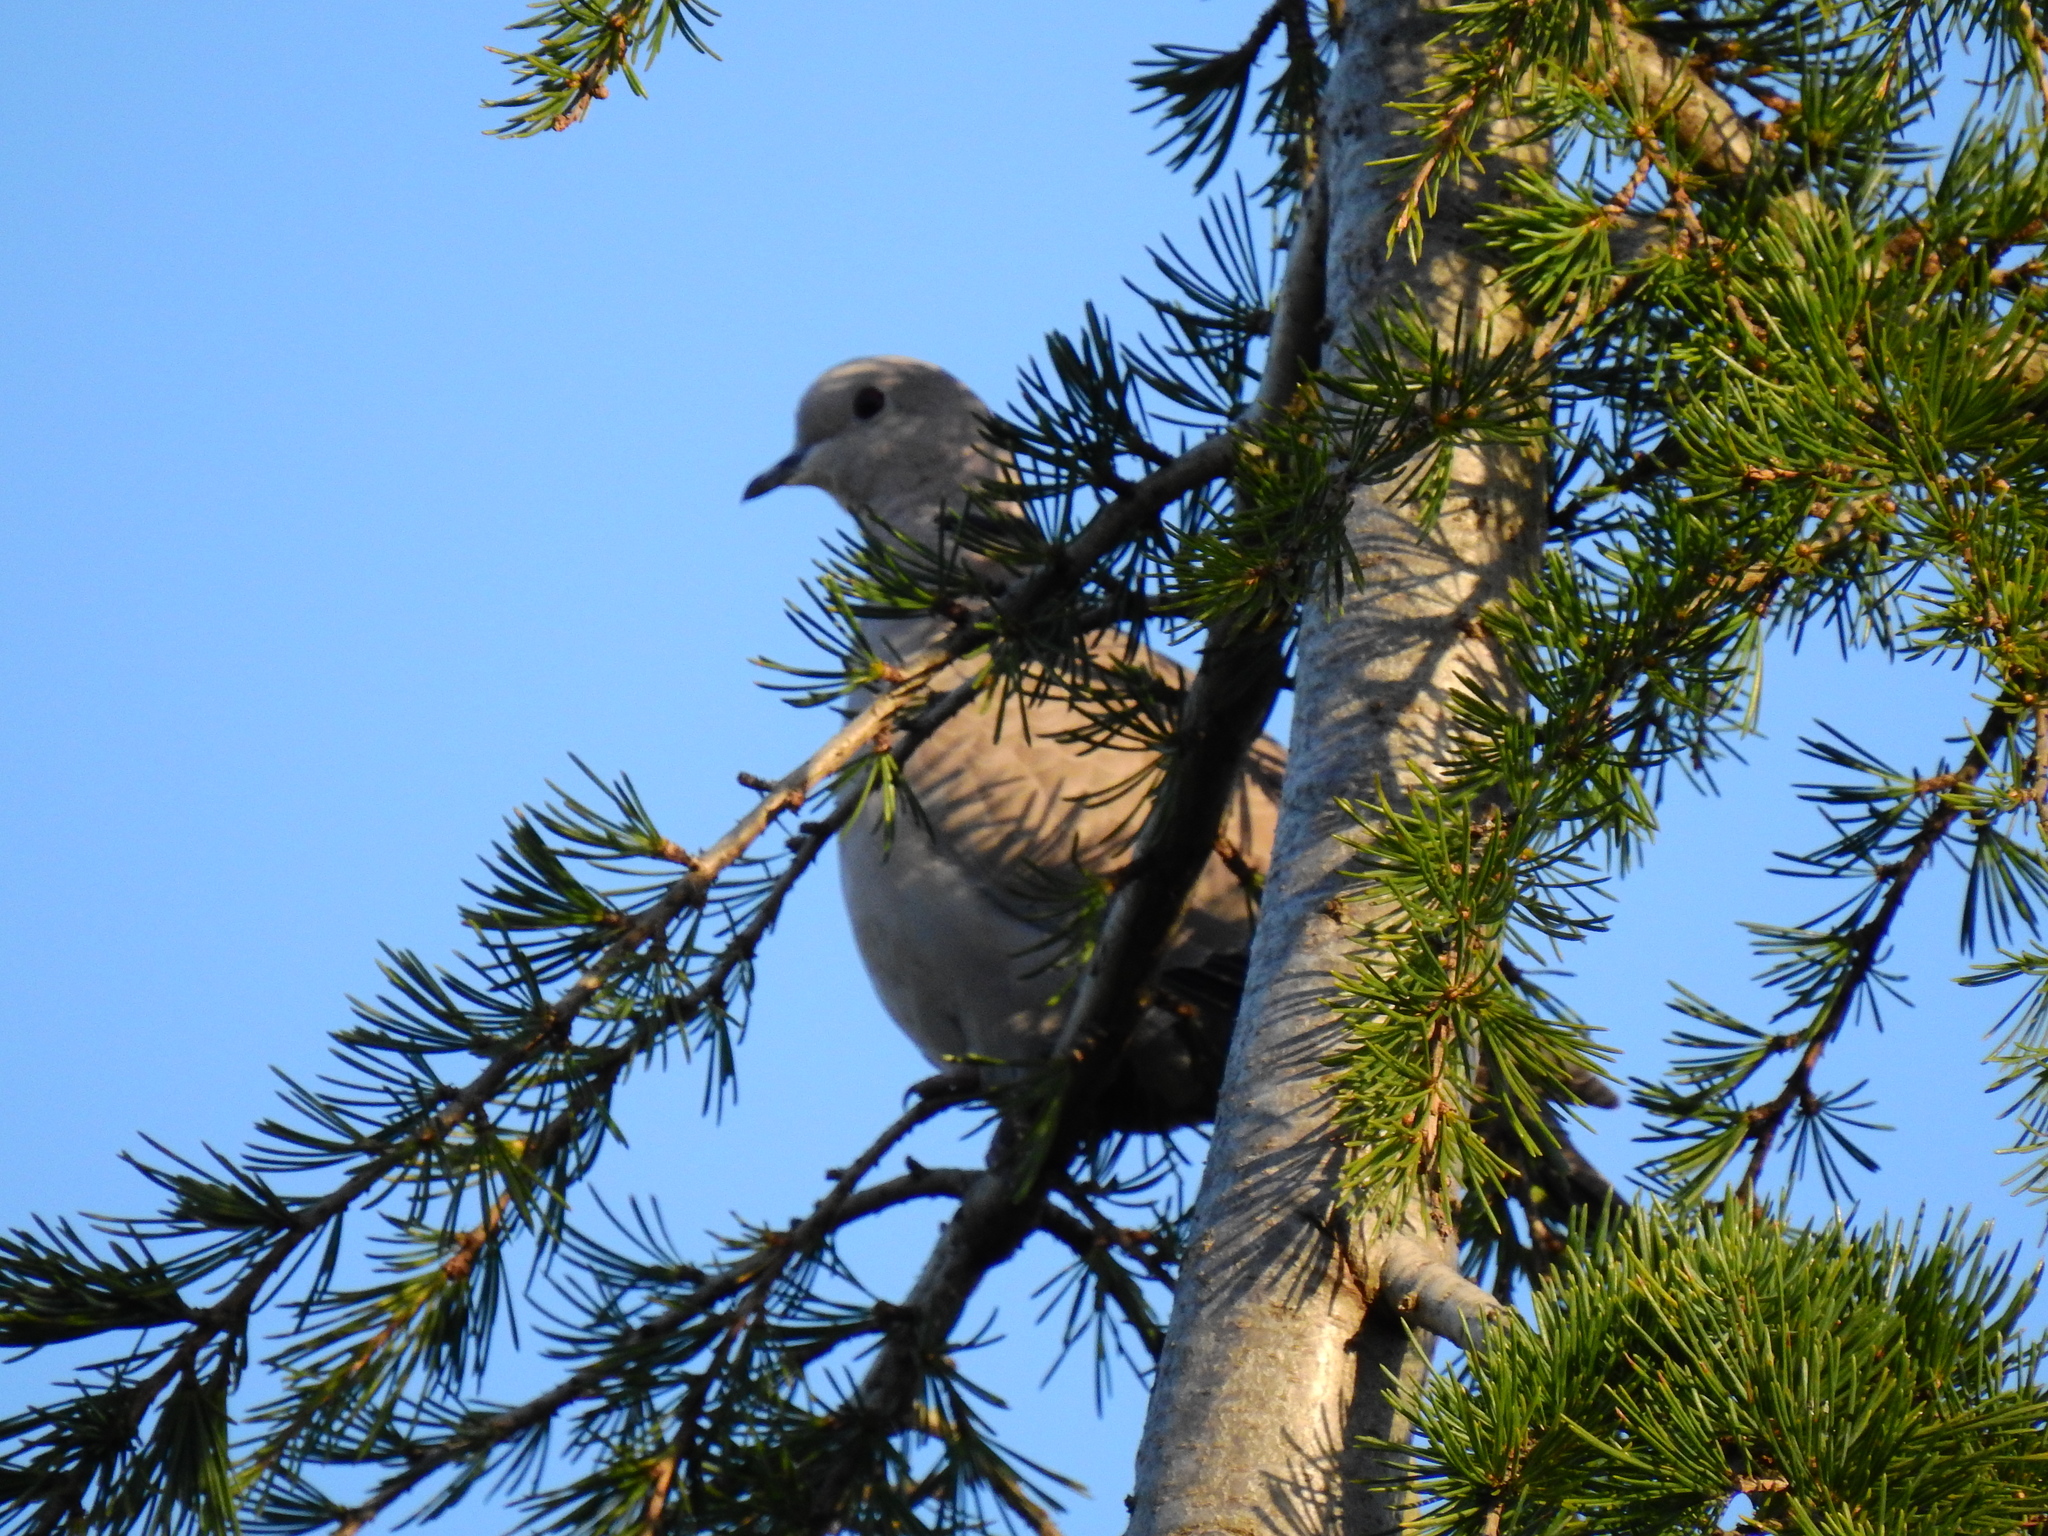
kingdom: Animalia
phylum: Chordata
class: Aves
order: Columbiformes
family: Columbidae
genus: Streptopelia
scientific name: Streptopelia decaocto
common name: Eurasian collared dove
